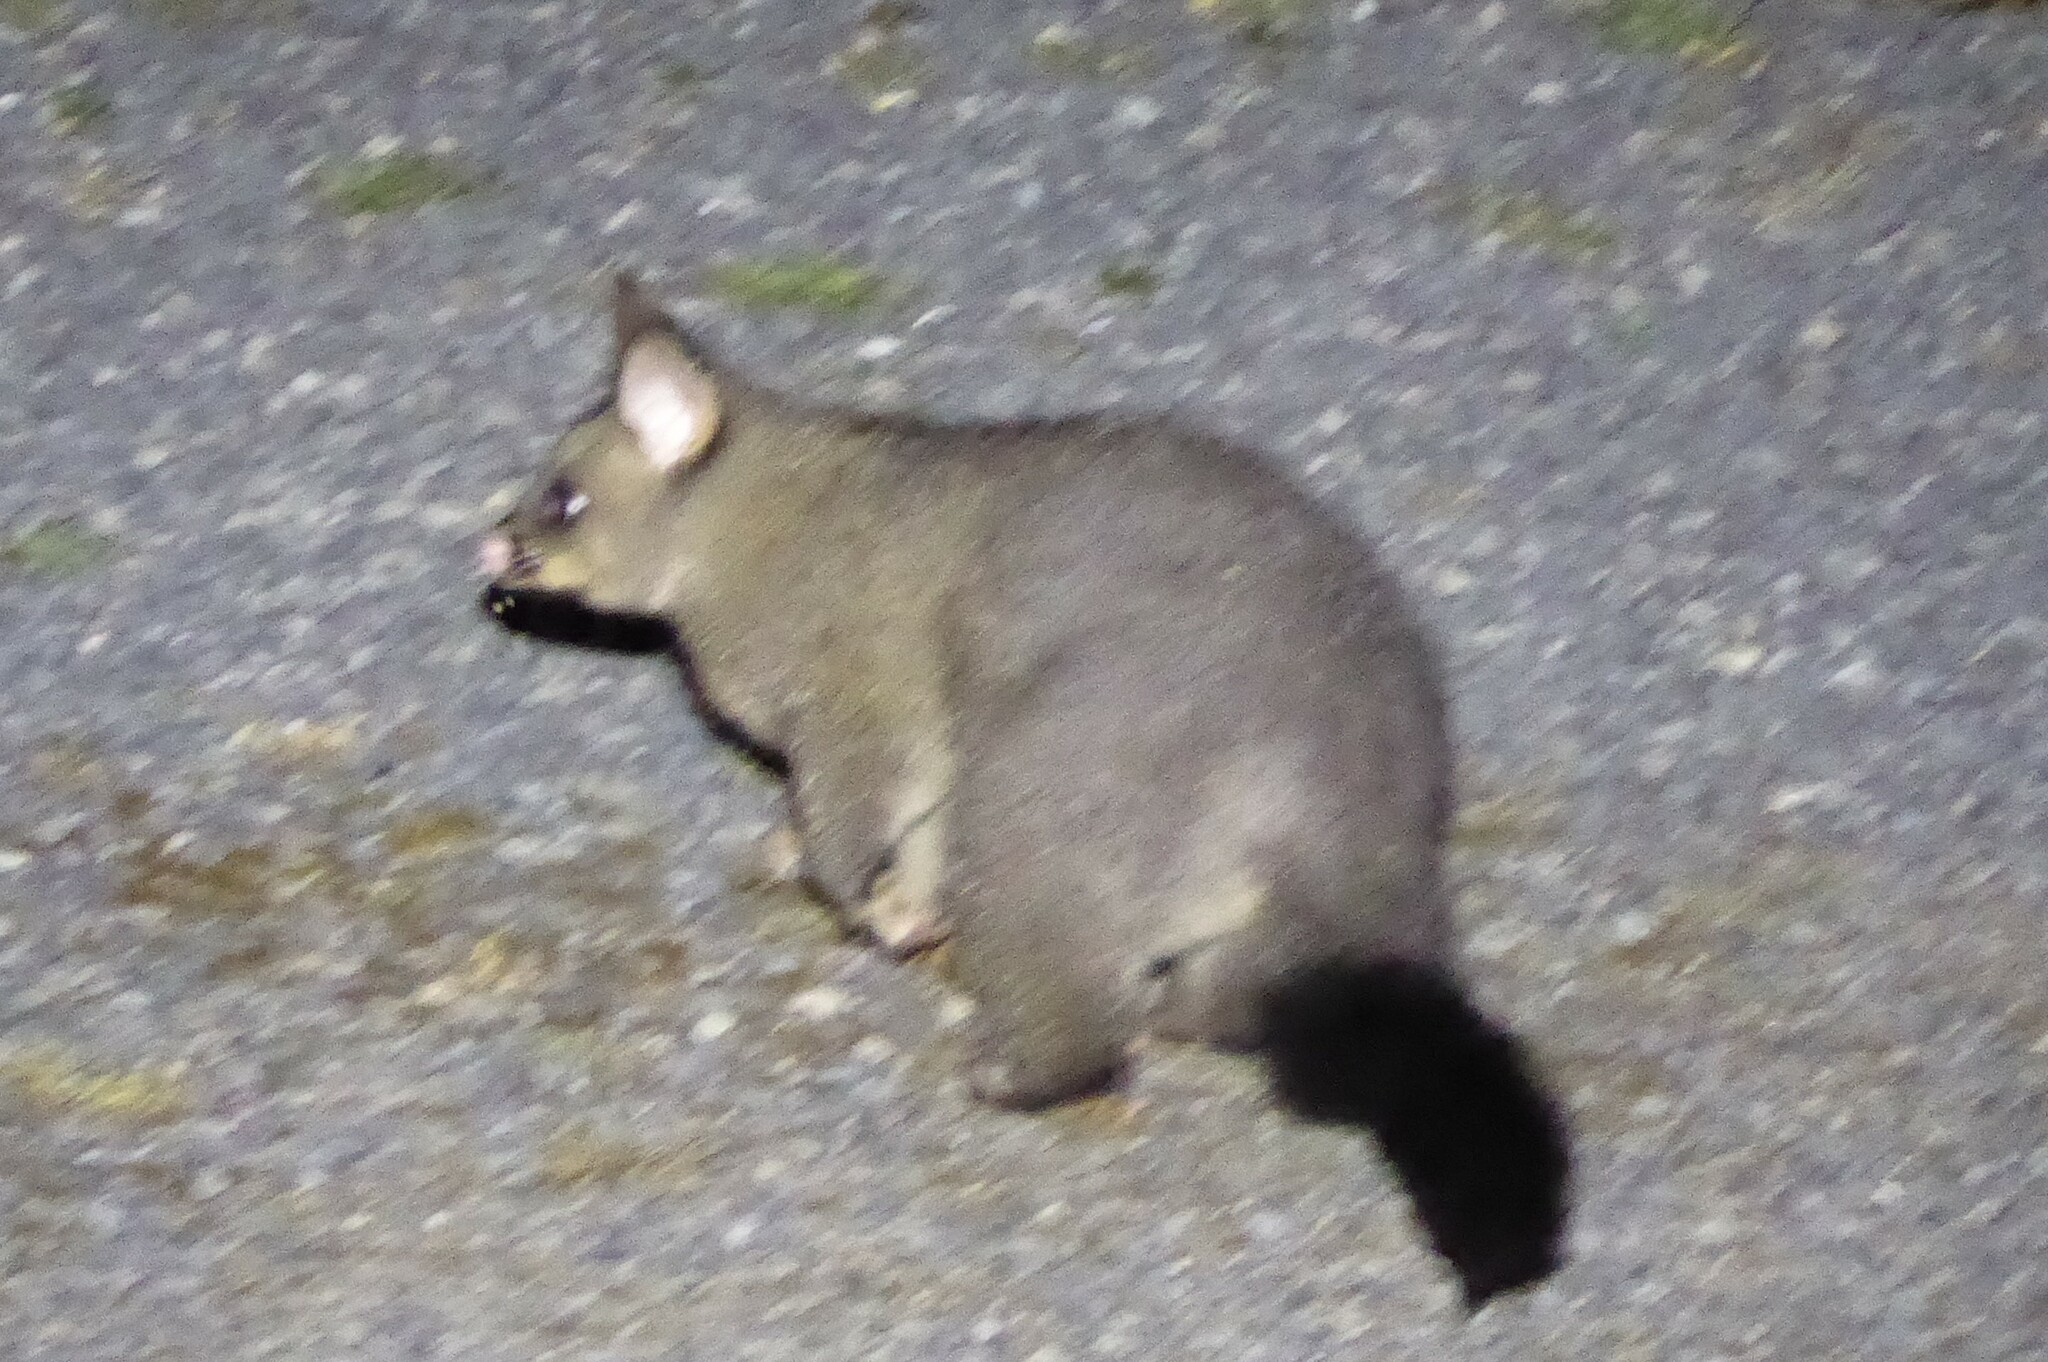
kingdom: Animalia
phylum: Chordata
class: Mammalia
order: Diprotodontia
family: Phalangeridae
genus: Trichosurus
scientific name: Trichosurus vulpecula
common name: Common brushtail
